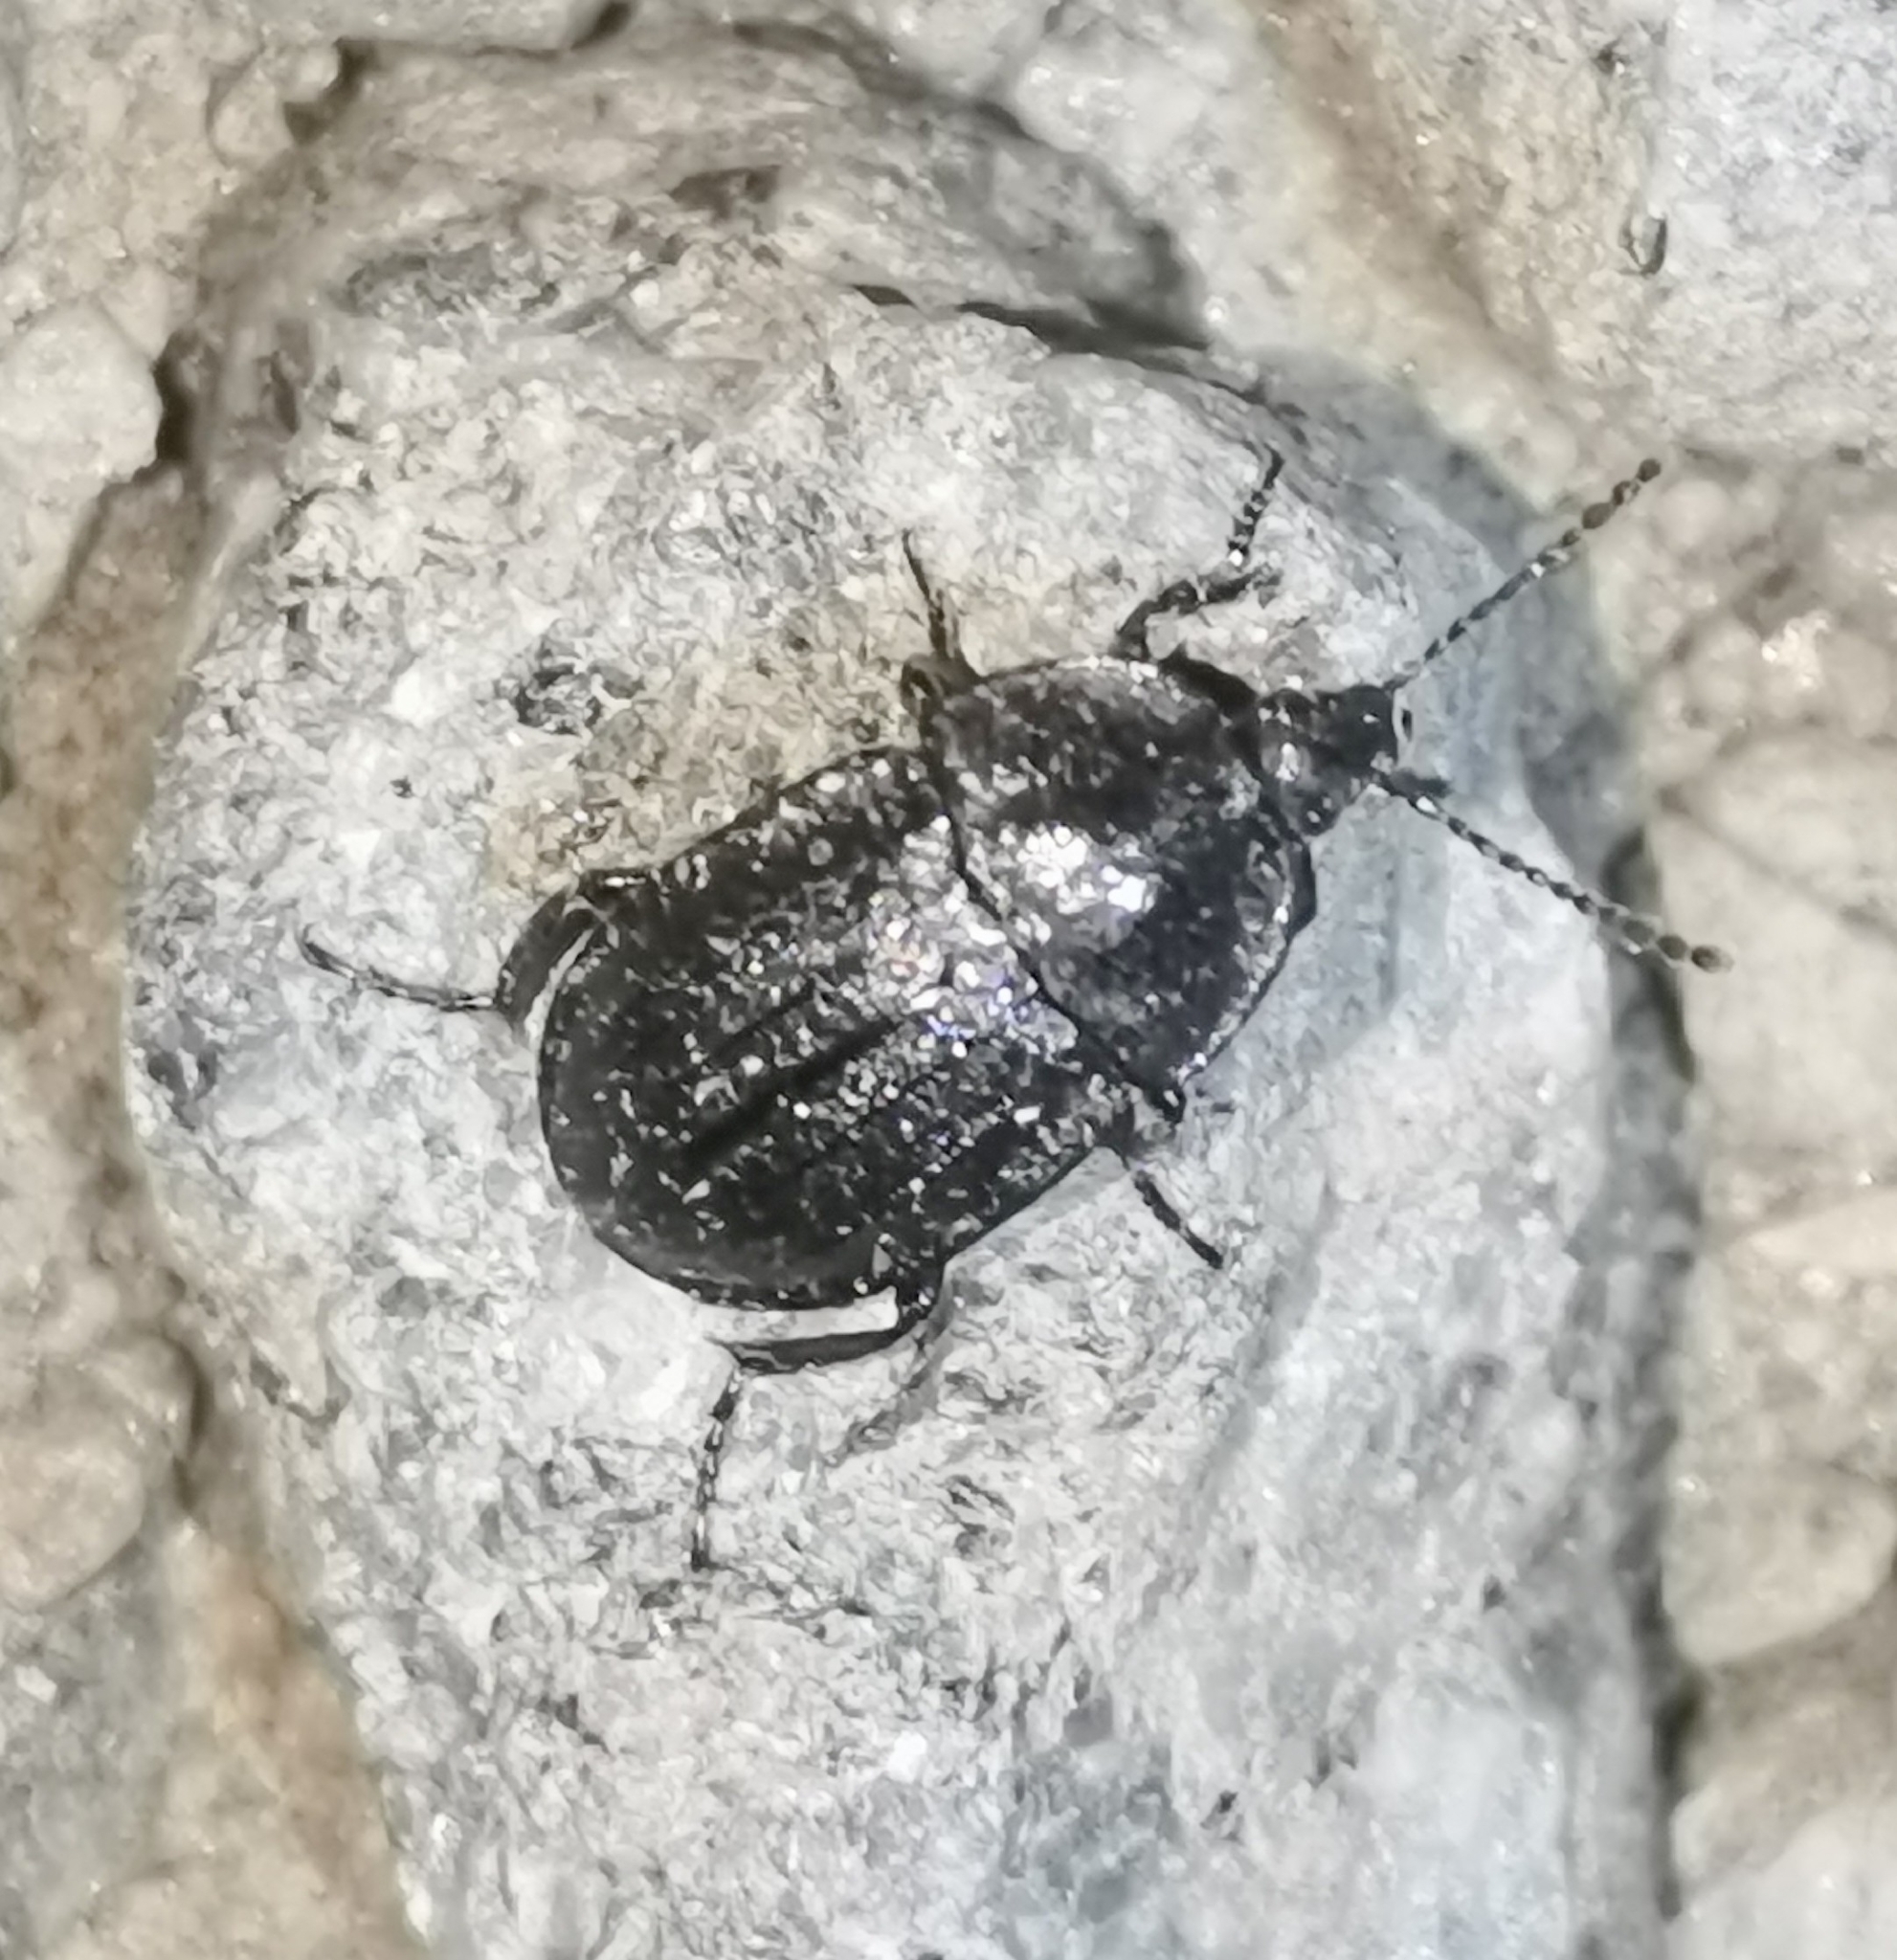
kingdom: Animalia
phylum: Arthropoda
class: Insecta
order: Coleoptera
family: Staphylinidae
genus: Silpha
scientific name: Silpha atrata
